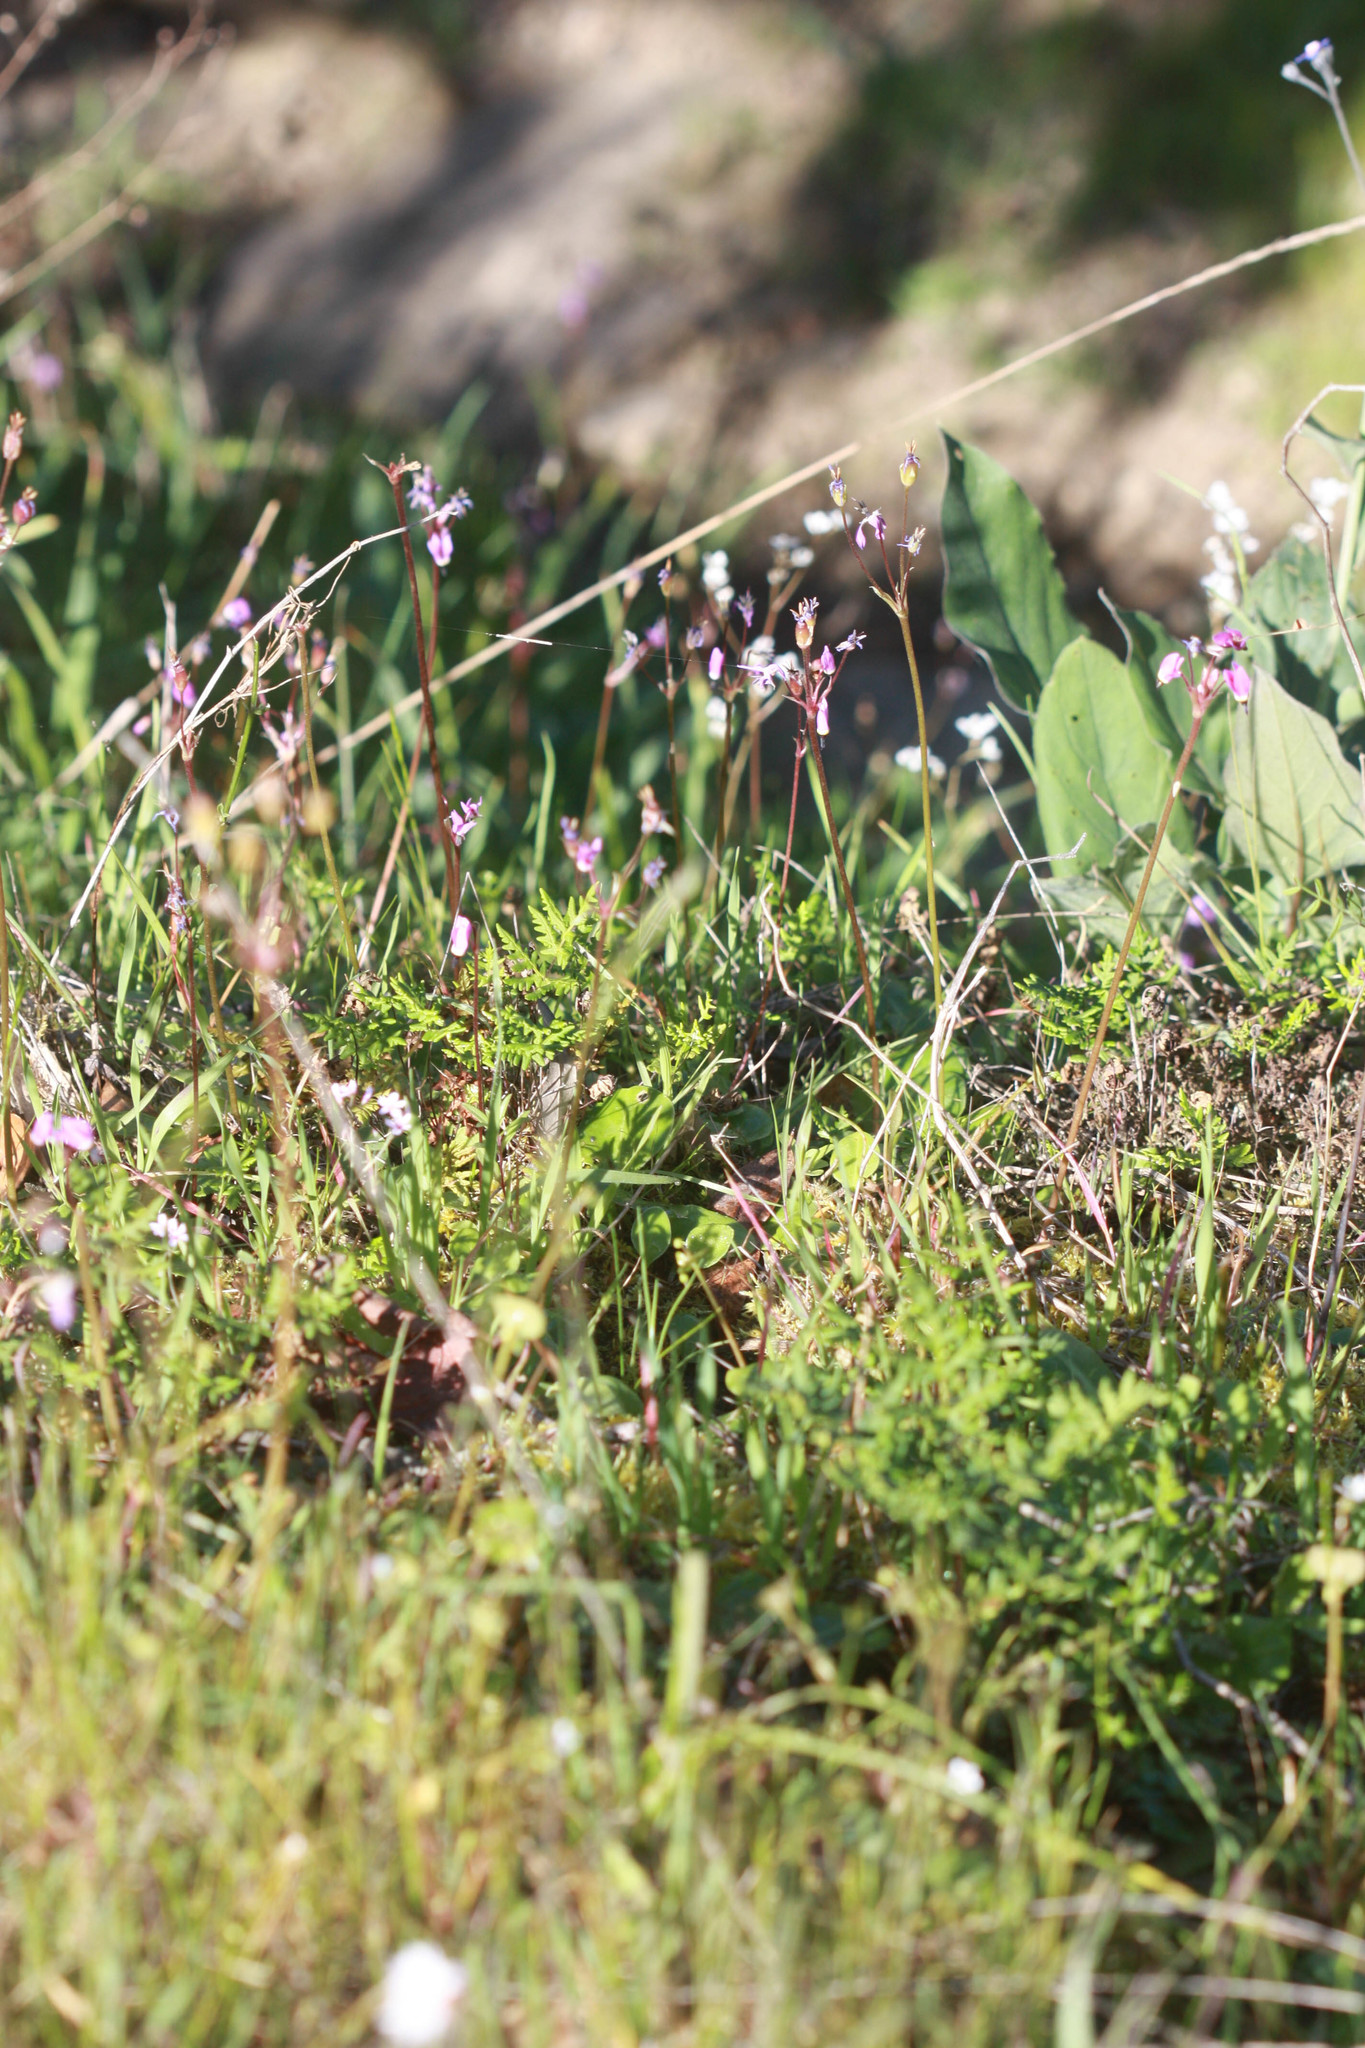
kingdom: Plantae
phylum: Tracheophyta
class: Magnoliopsida
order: Ericales
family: Primulaceae
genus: Dodecatheon
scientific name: Dodecatheon hendersonii
